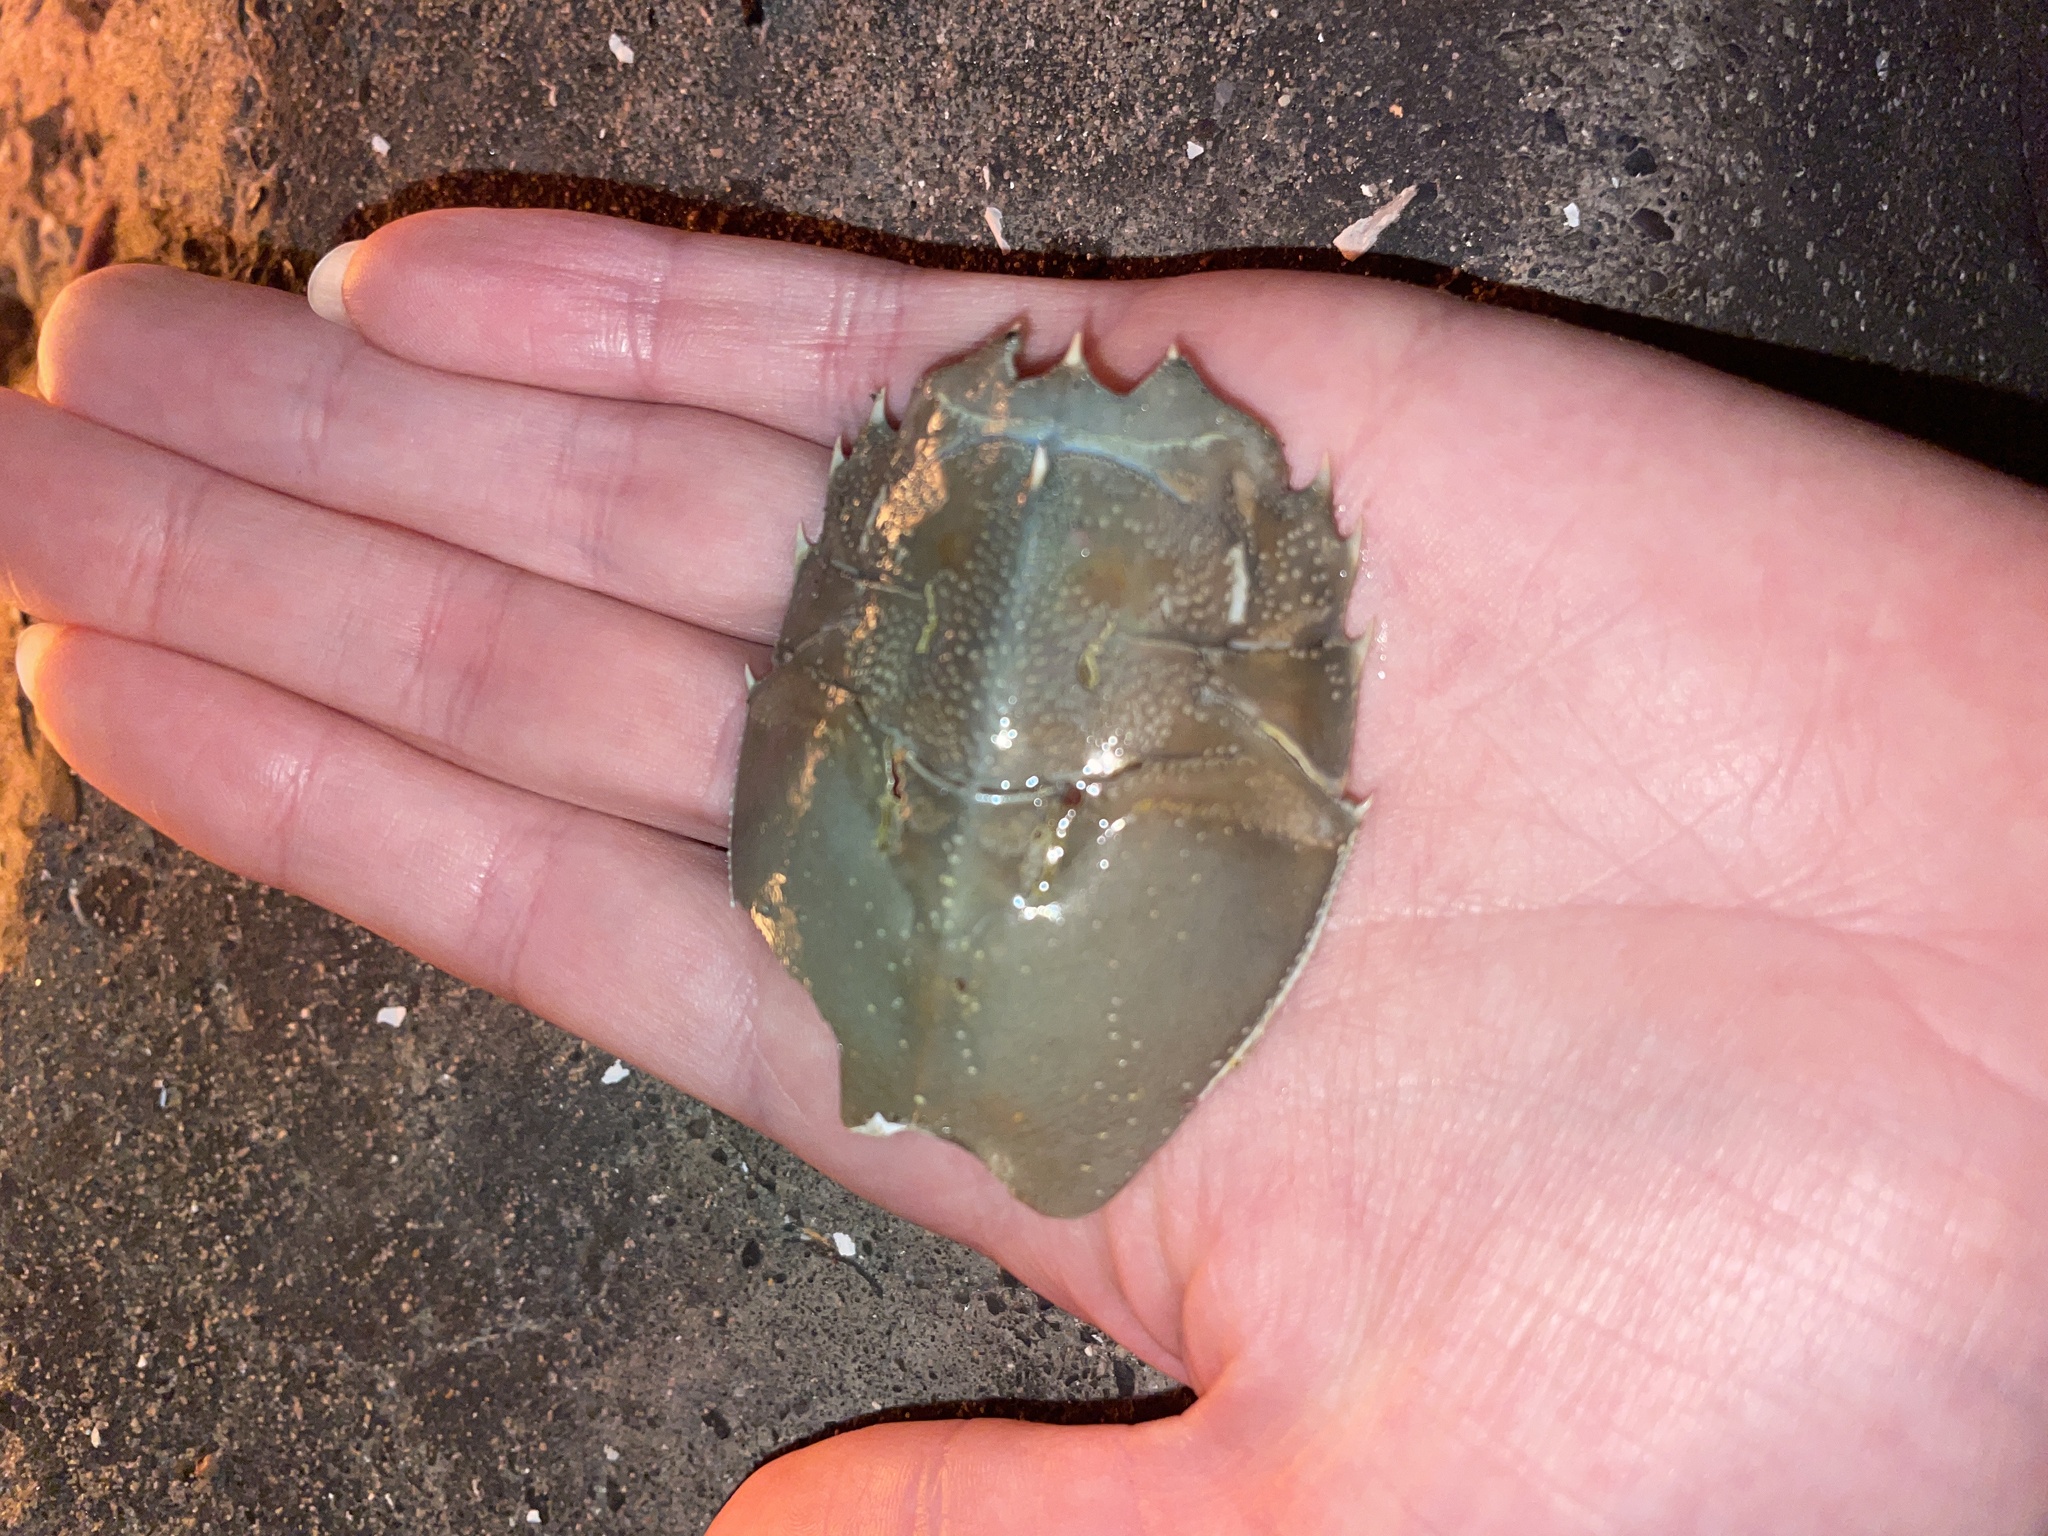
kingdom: Animalia
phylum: Arthropoda
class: Malacostraca
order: Decapoda
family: Blepharipodidae
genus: Blepharipoda
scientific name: Blepharipoda occidentalis
